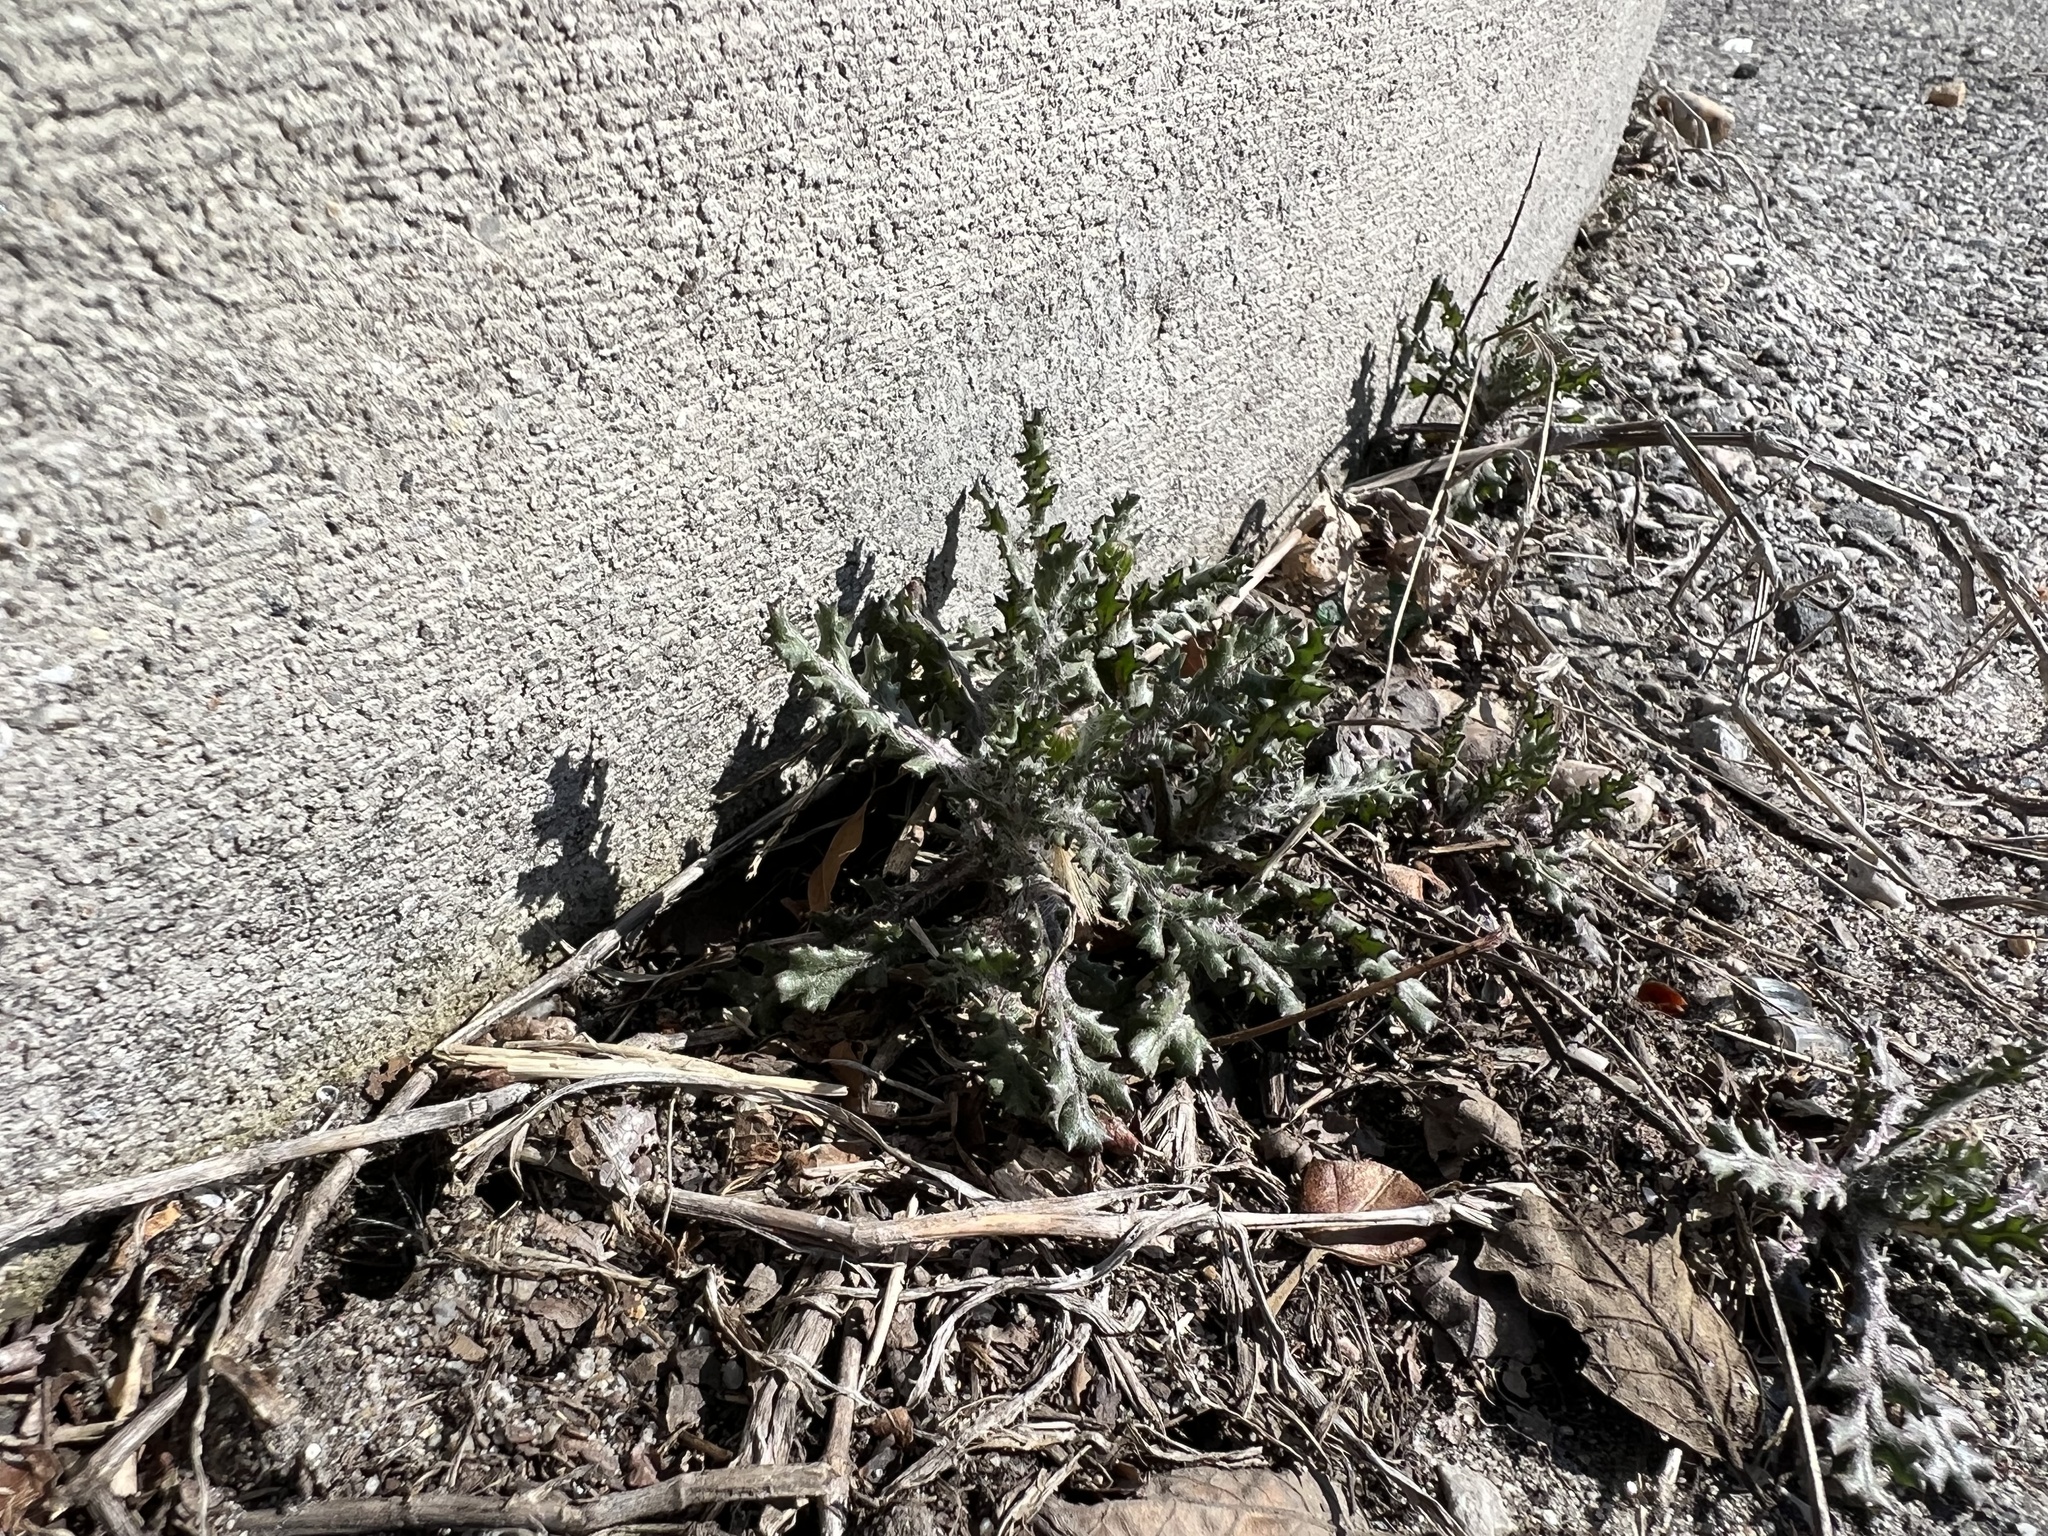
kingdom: Plantae
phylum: Tracheophyta
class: Magnoliopsida
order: Asterales
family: Asteraceae
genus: Senecio
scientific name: Senecio vulgaris
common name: Old-man-in-the-spring
